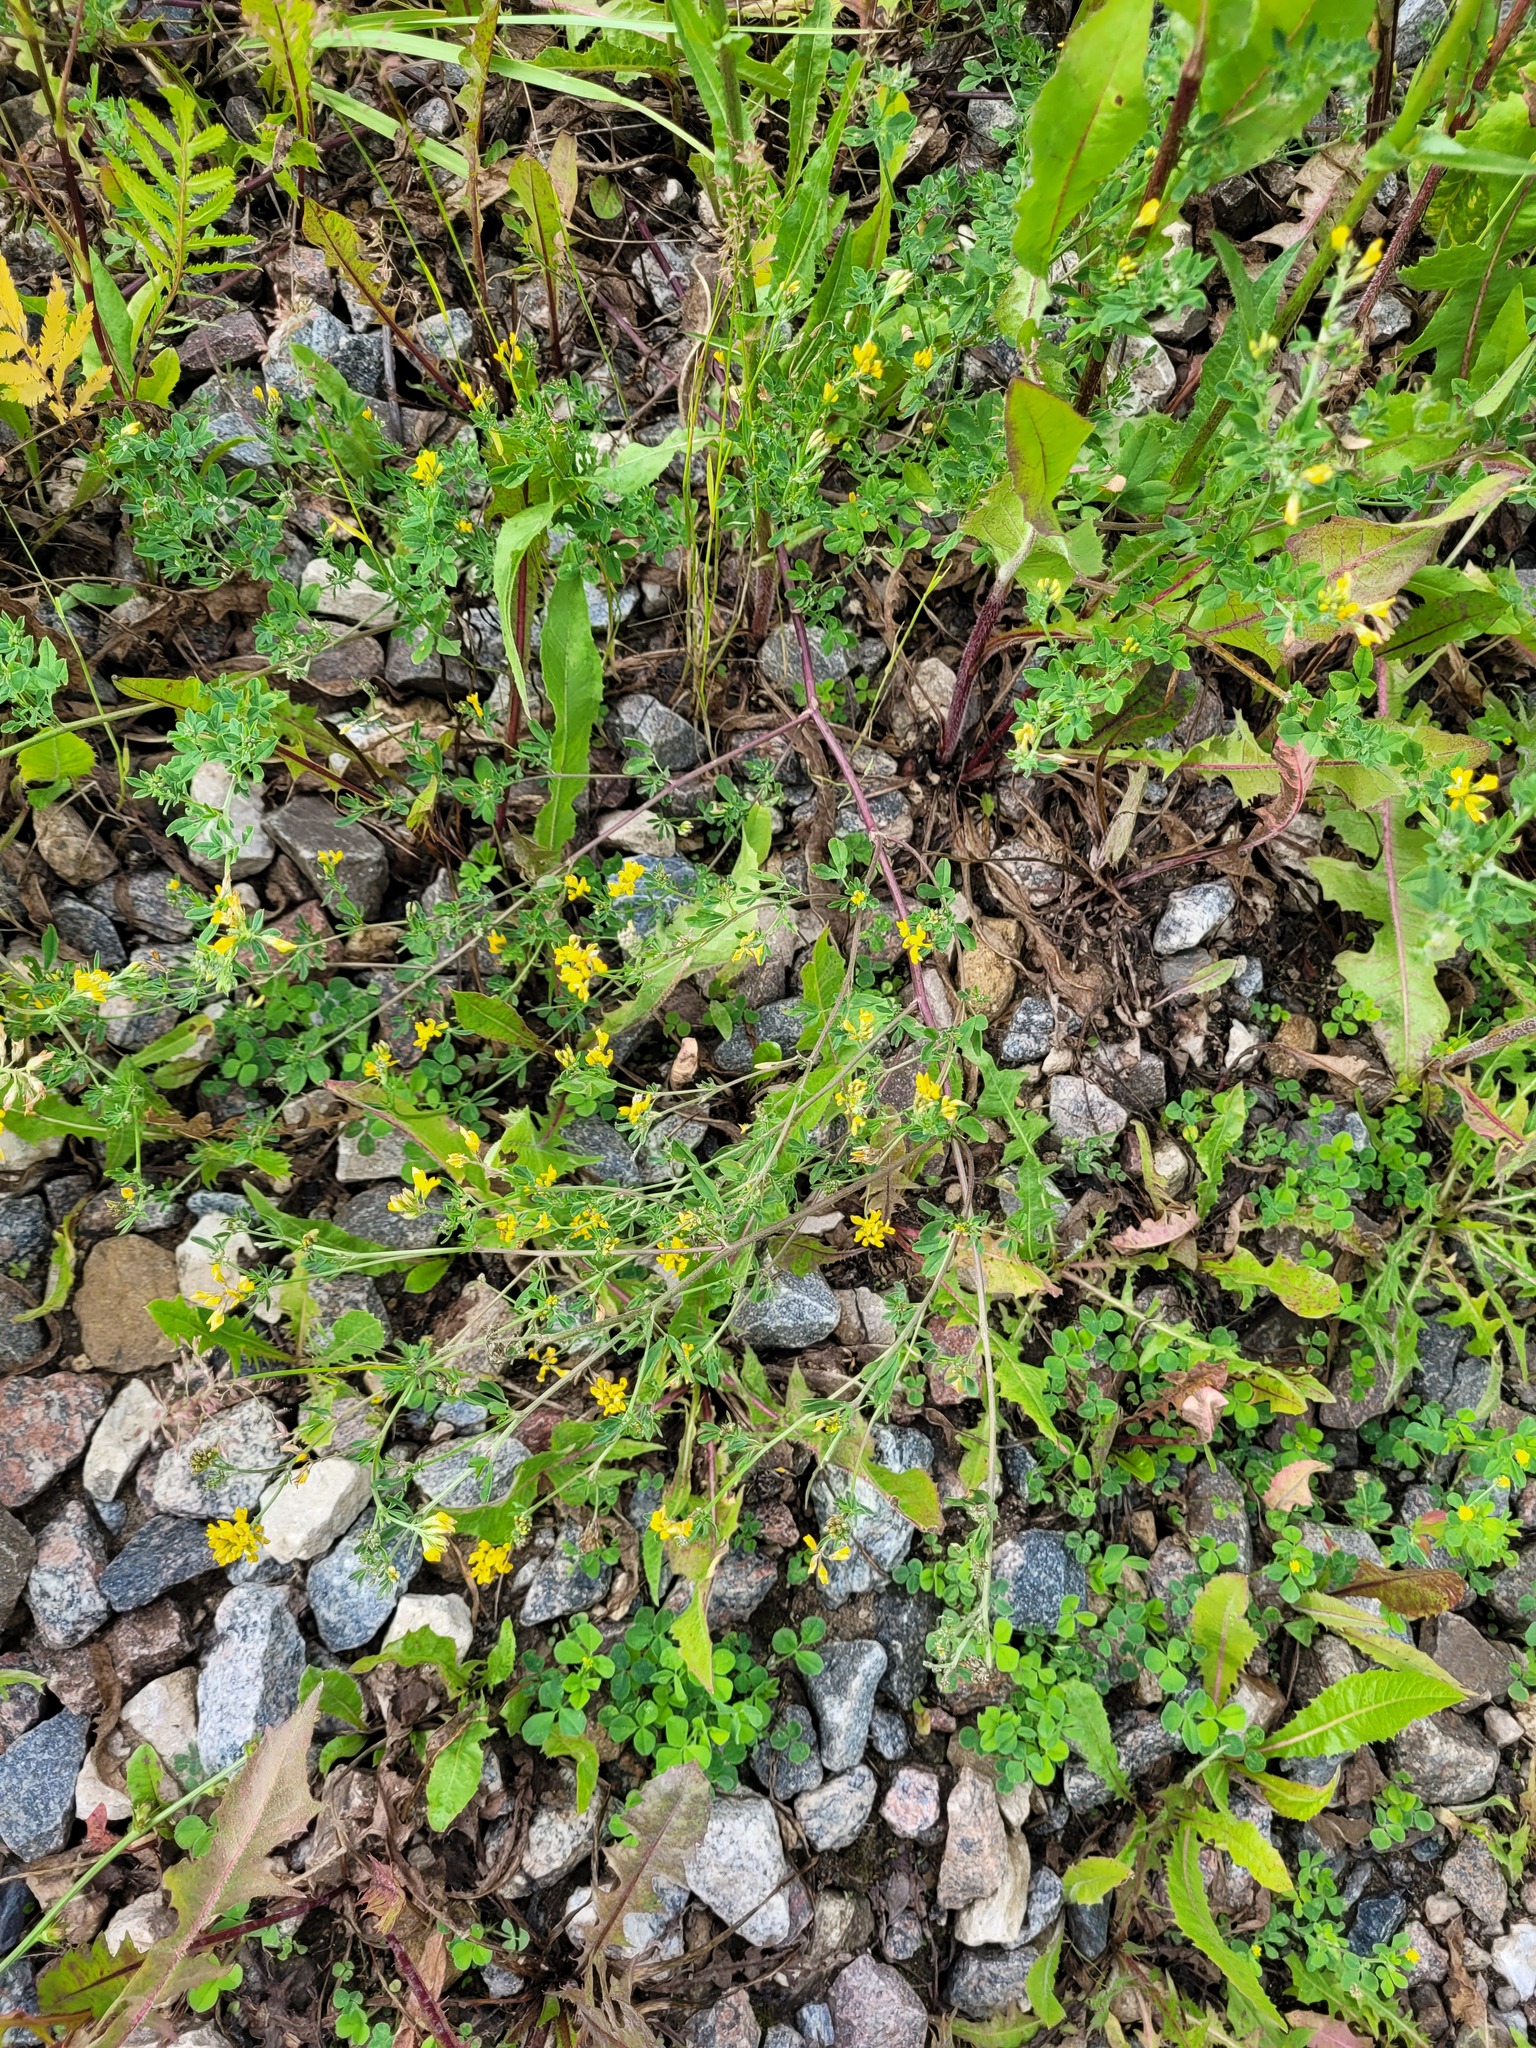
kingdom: Plantae
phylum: Tracheophyta
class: Magnoliopsida
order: Fabales
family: Fabaceae
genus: Medicago
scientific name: Medicago falcata
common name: Sickle medick
